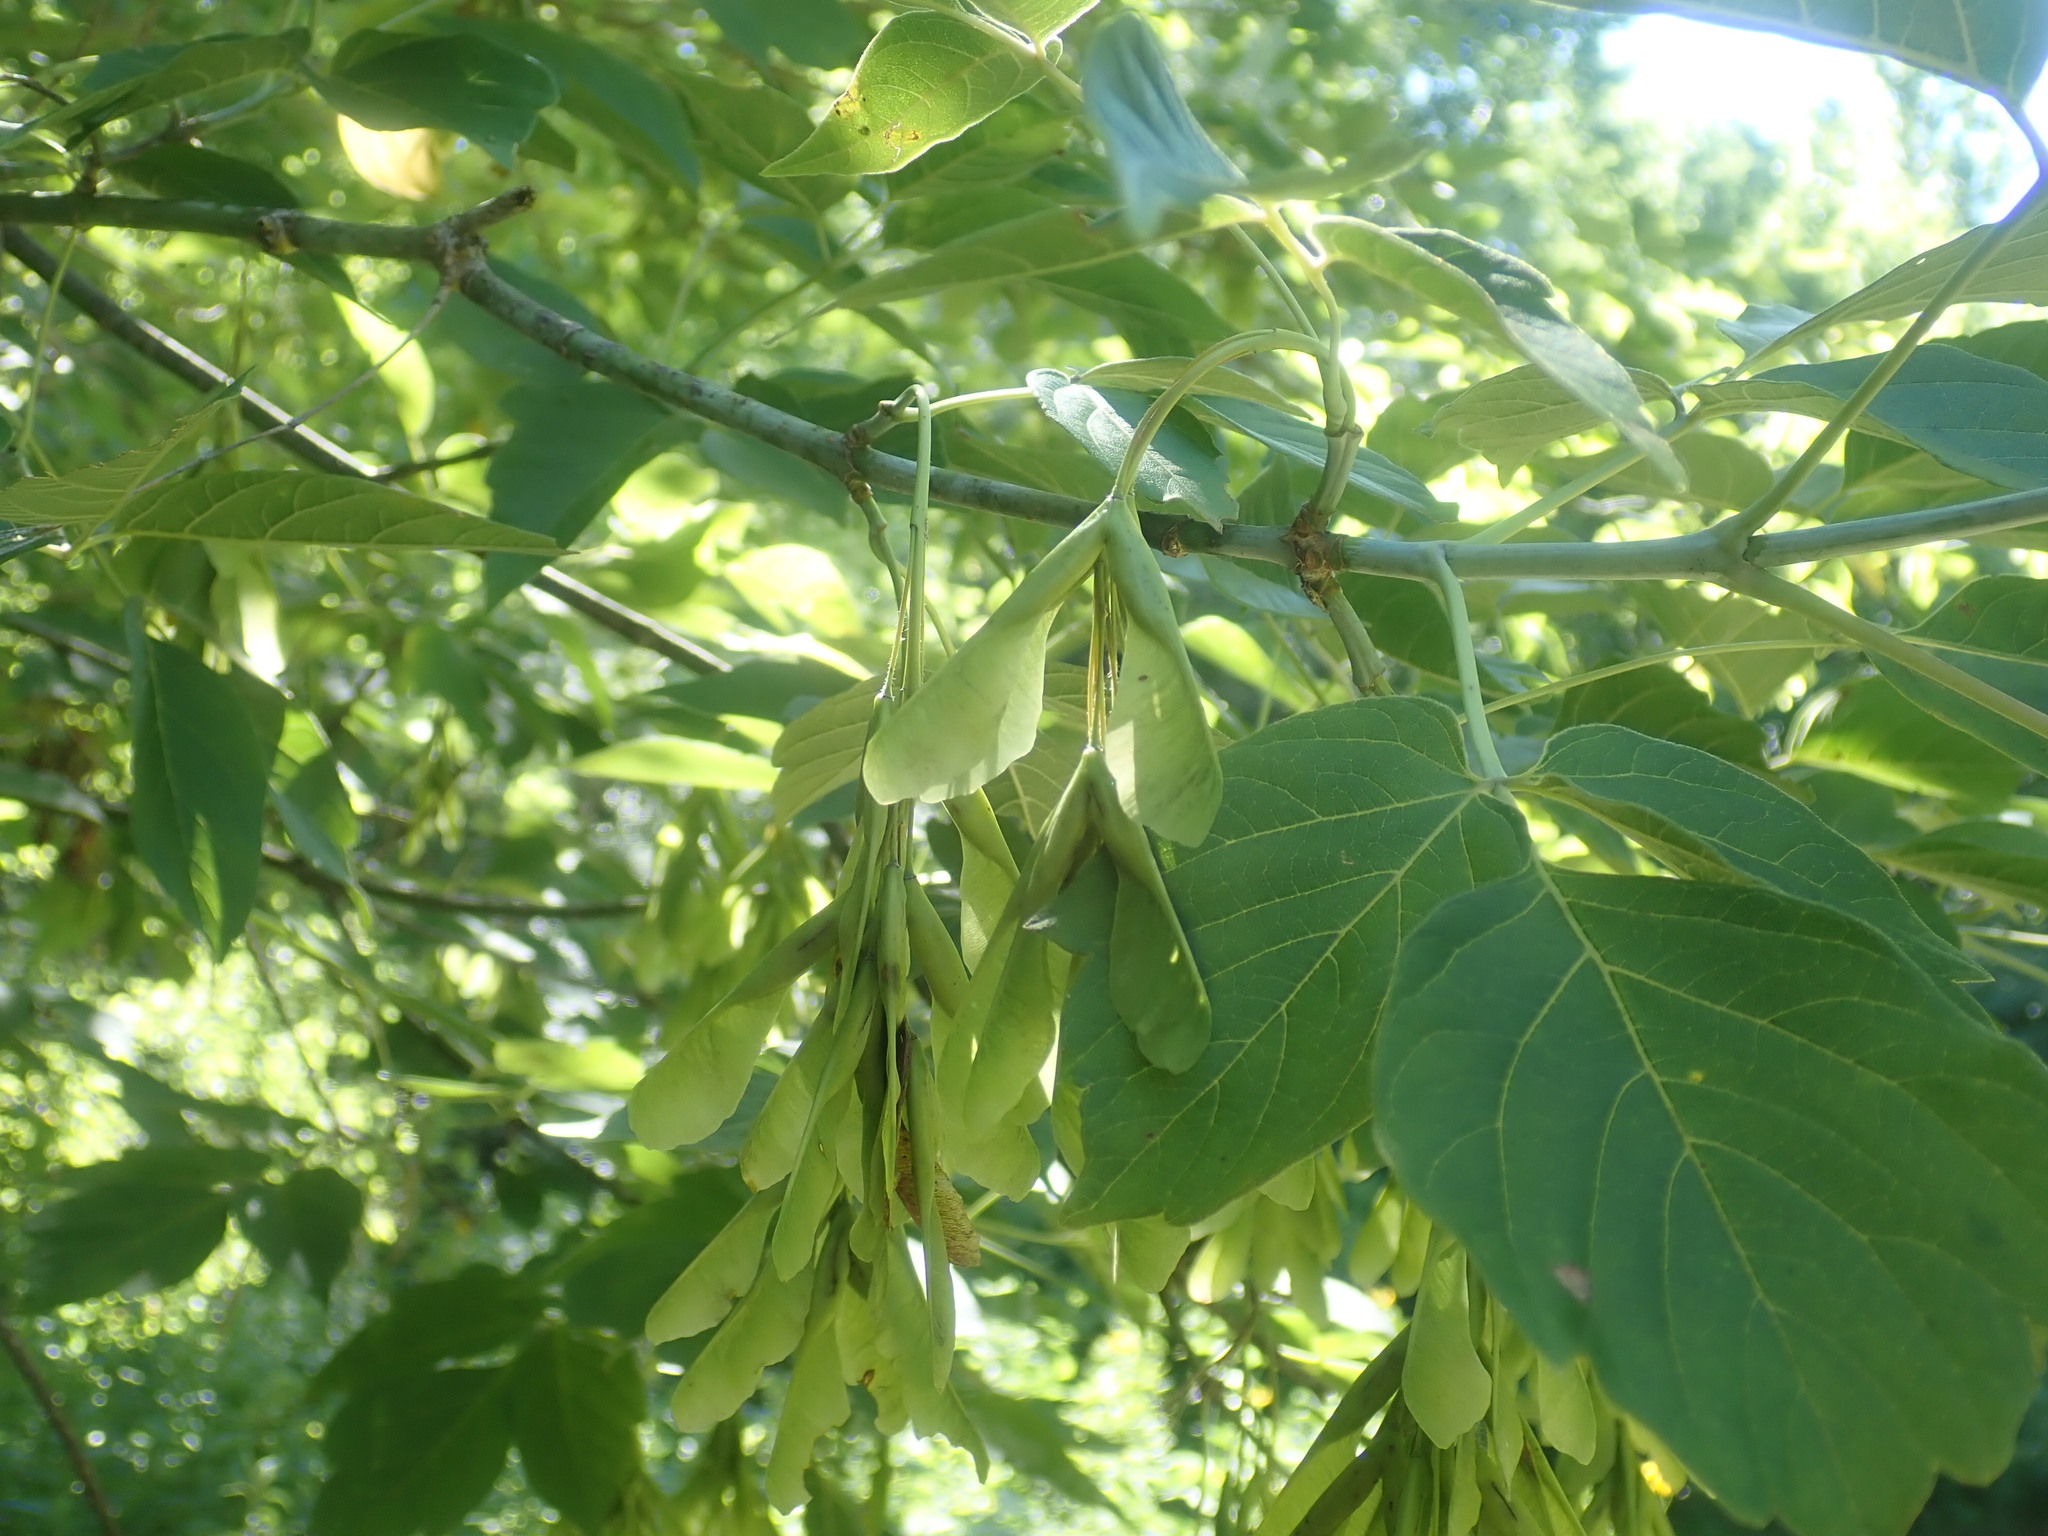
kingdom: Plantae
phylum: Tracheophyta
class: Magnoliopsida
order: Sapindales
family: Sapindaceae
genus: Acer
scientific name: Acer negundo
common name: Ashleaf maple
